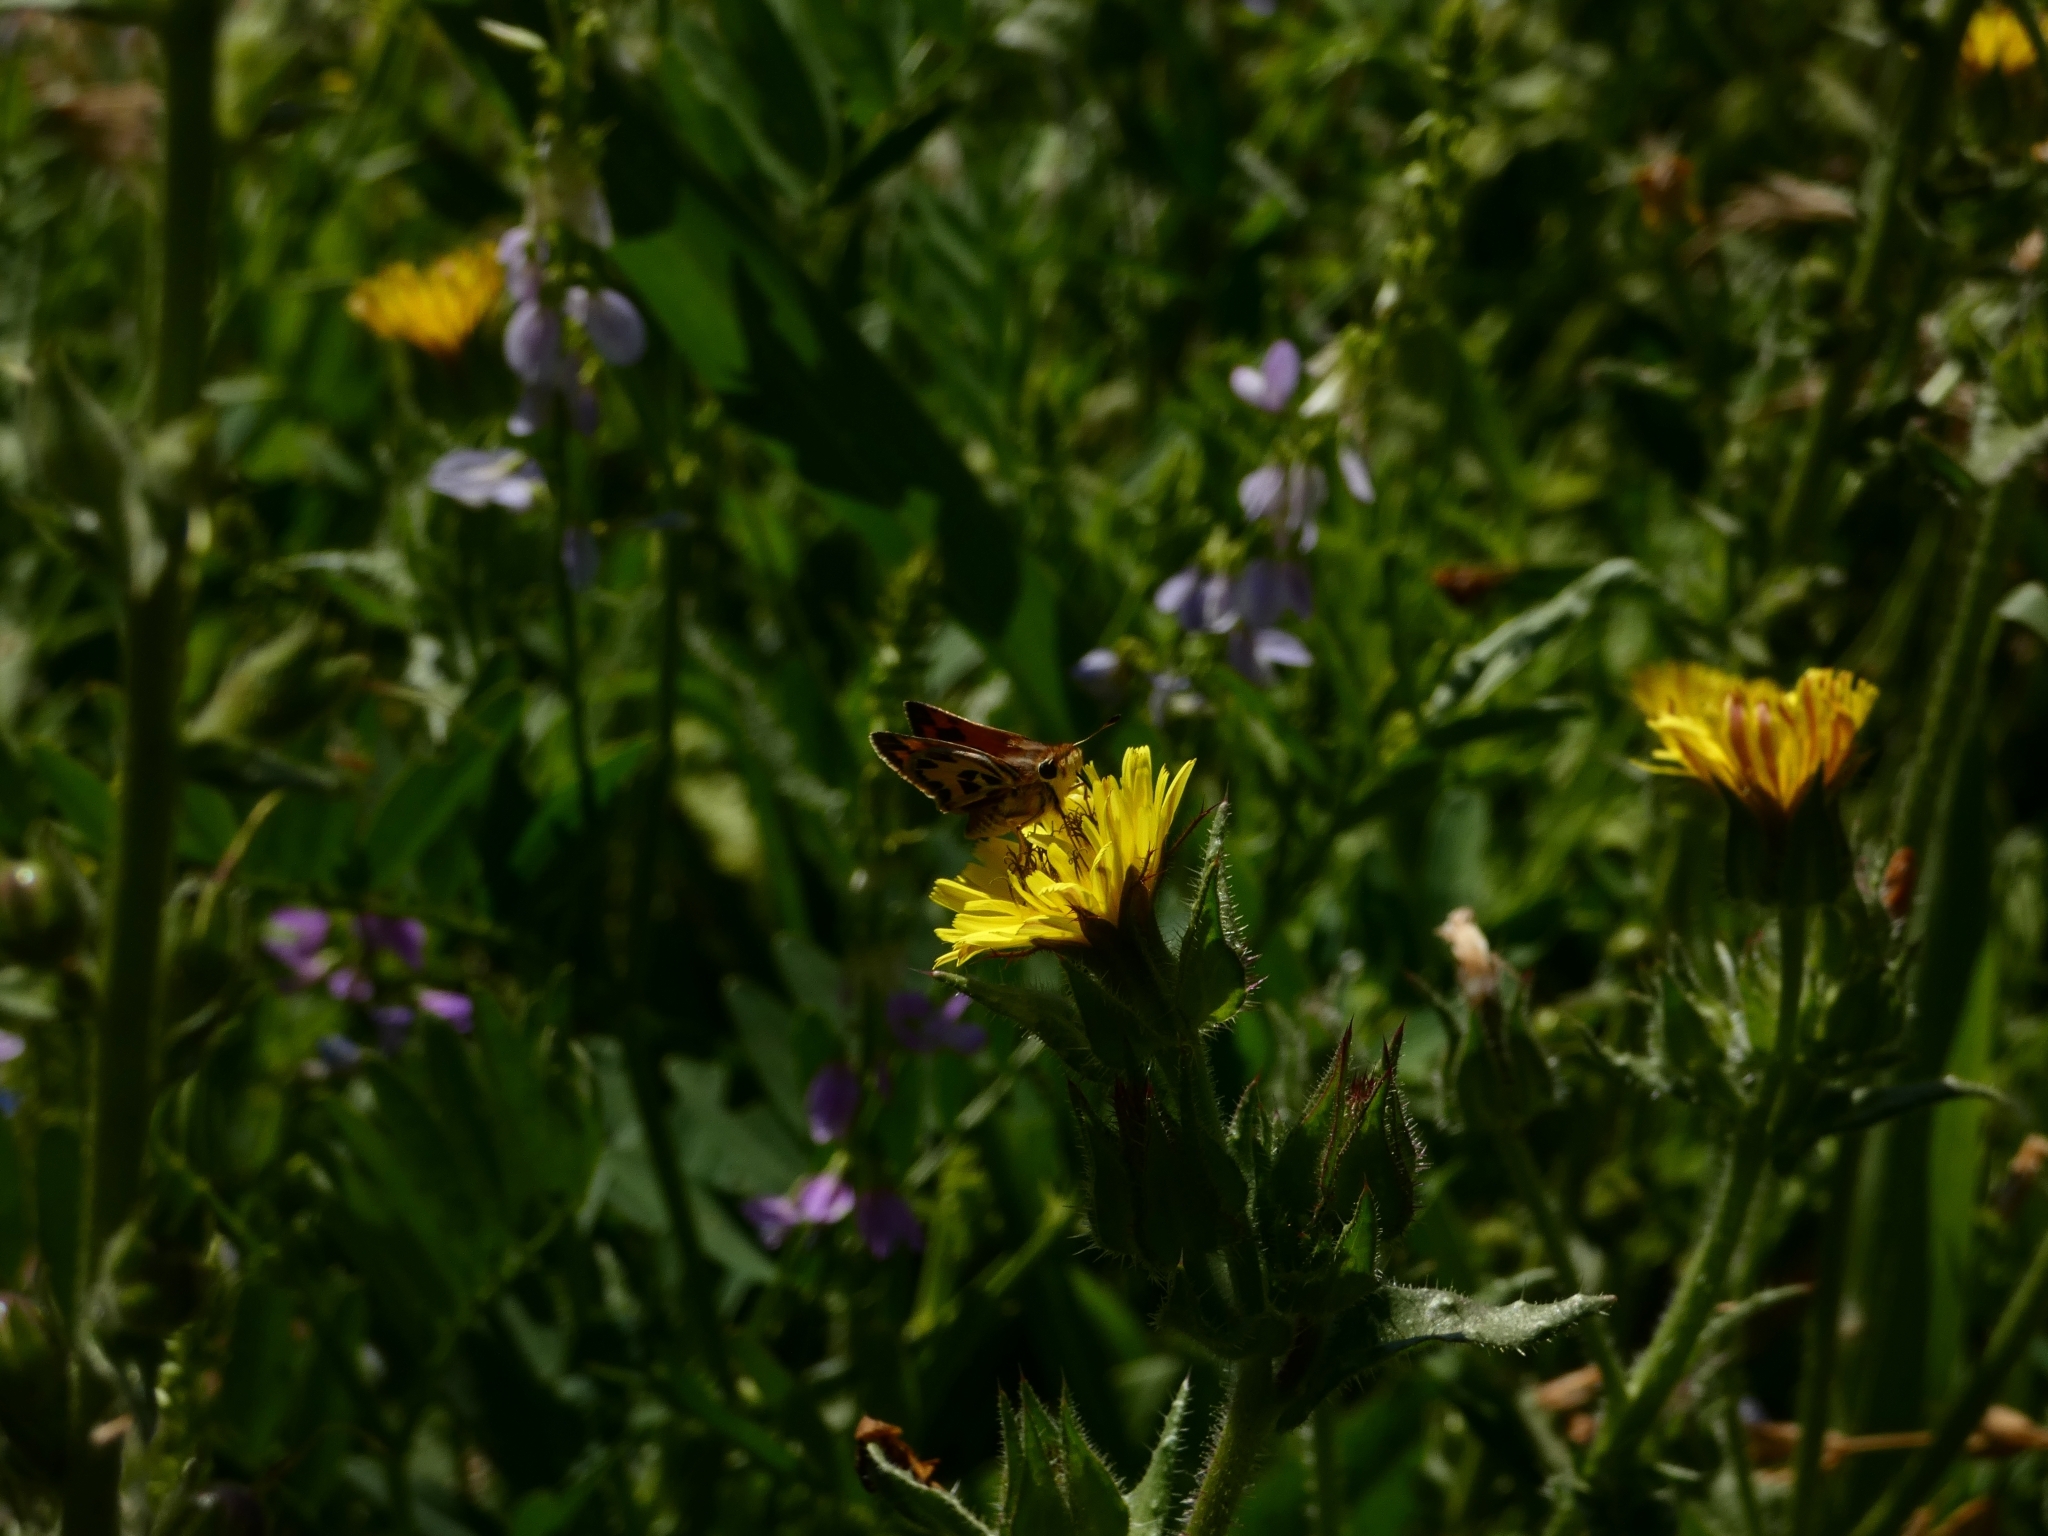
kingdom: Animalia
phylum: Arthropoda
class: Insecta
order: Lepidoptera
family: Hesperiidae
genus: Hylephila
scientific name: Hylephila fasciolata
